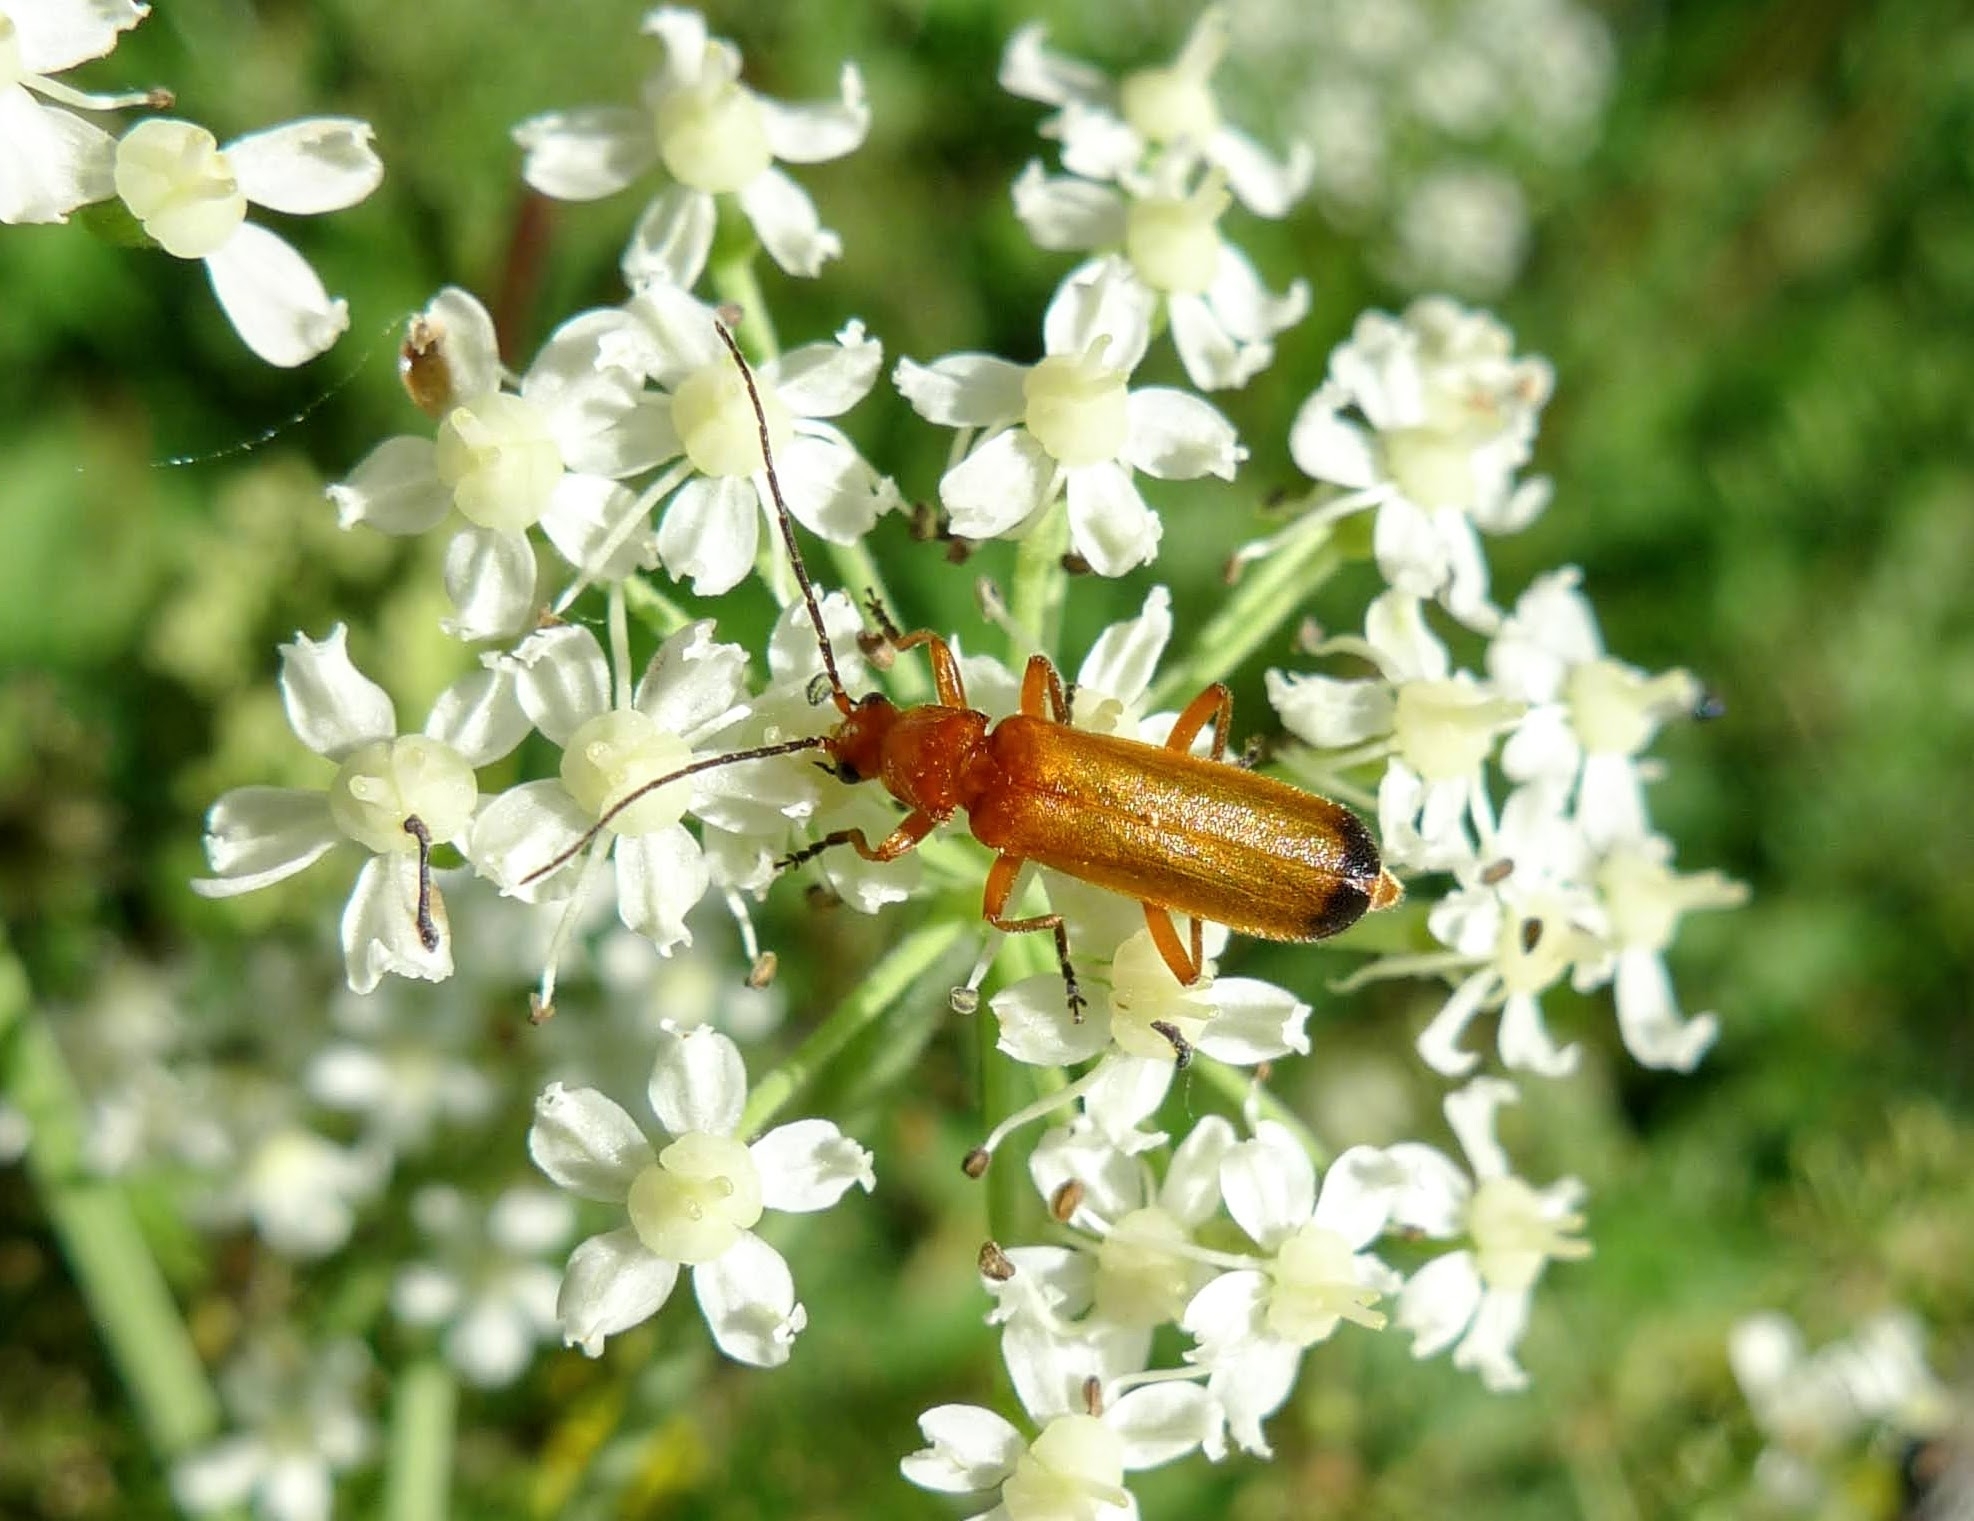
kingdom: Animalia
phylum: Arthropoda
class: Insecta
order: Coleoptera
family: Cantharidae
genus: Rhagonycha
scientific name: Rhagonycha fulva
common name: Common red soldier beetle
